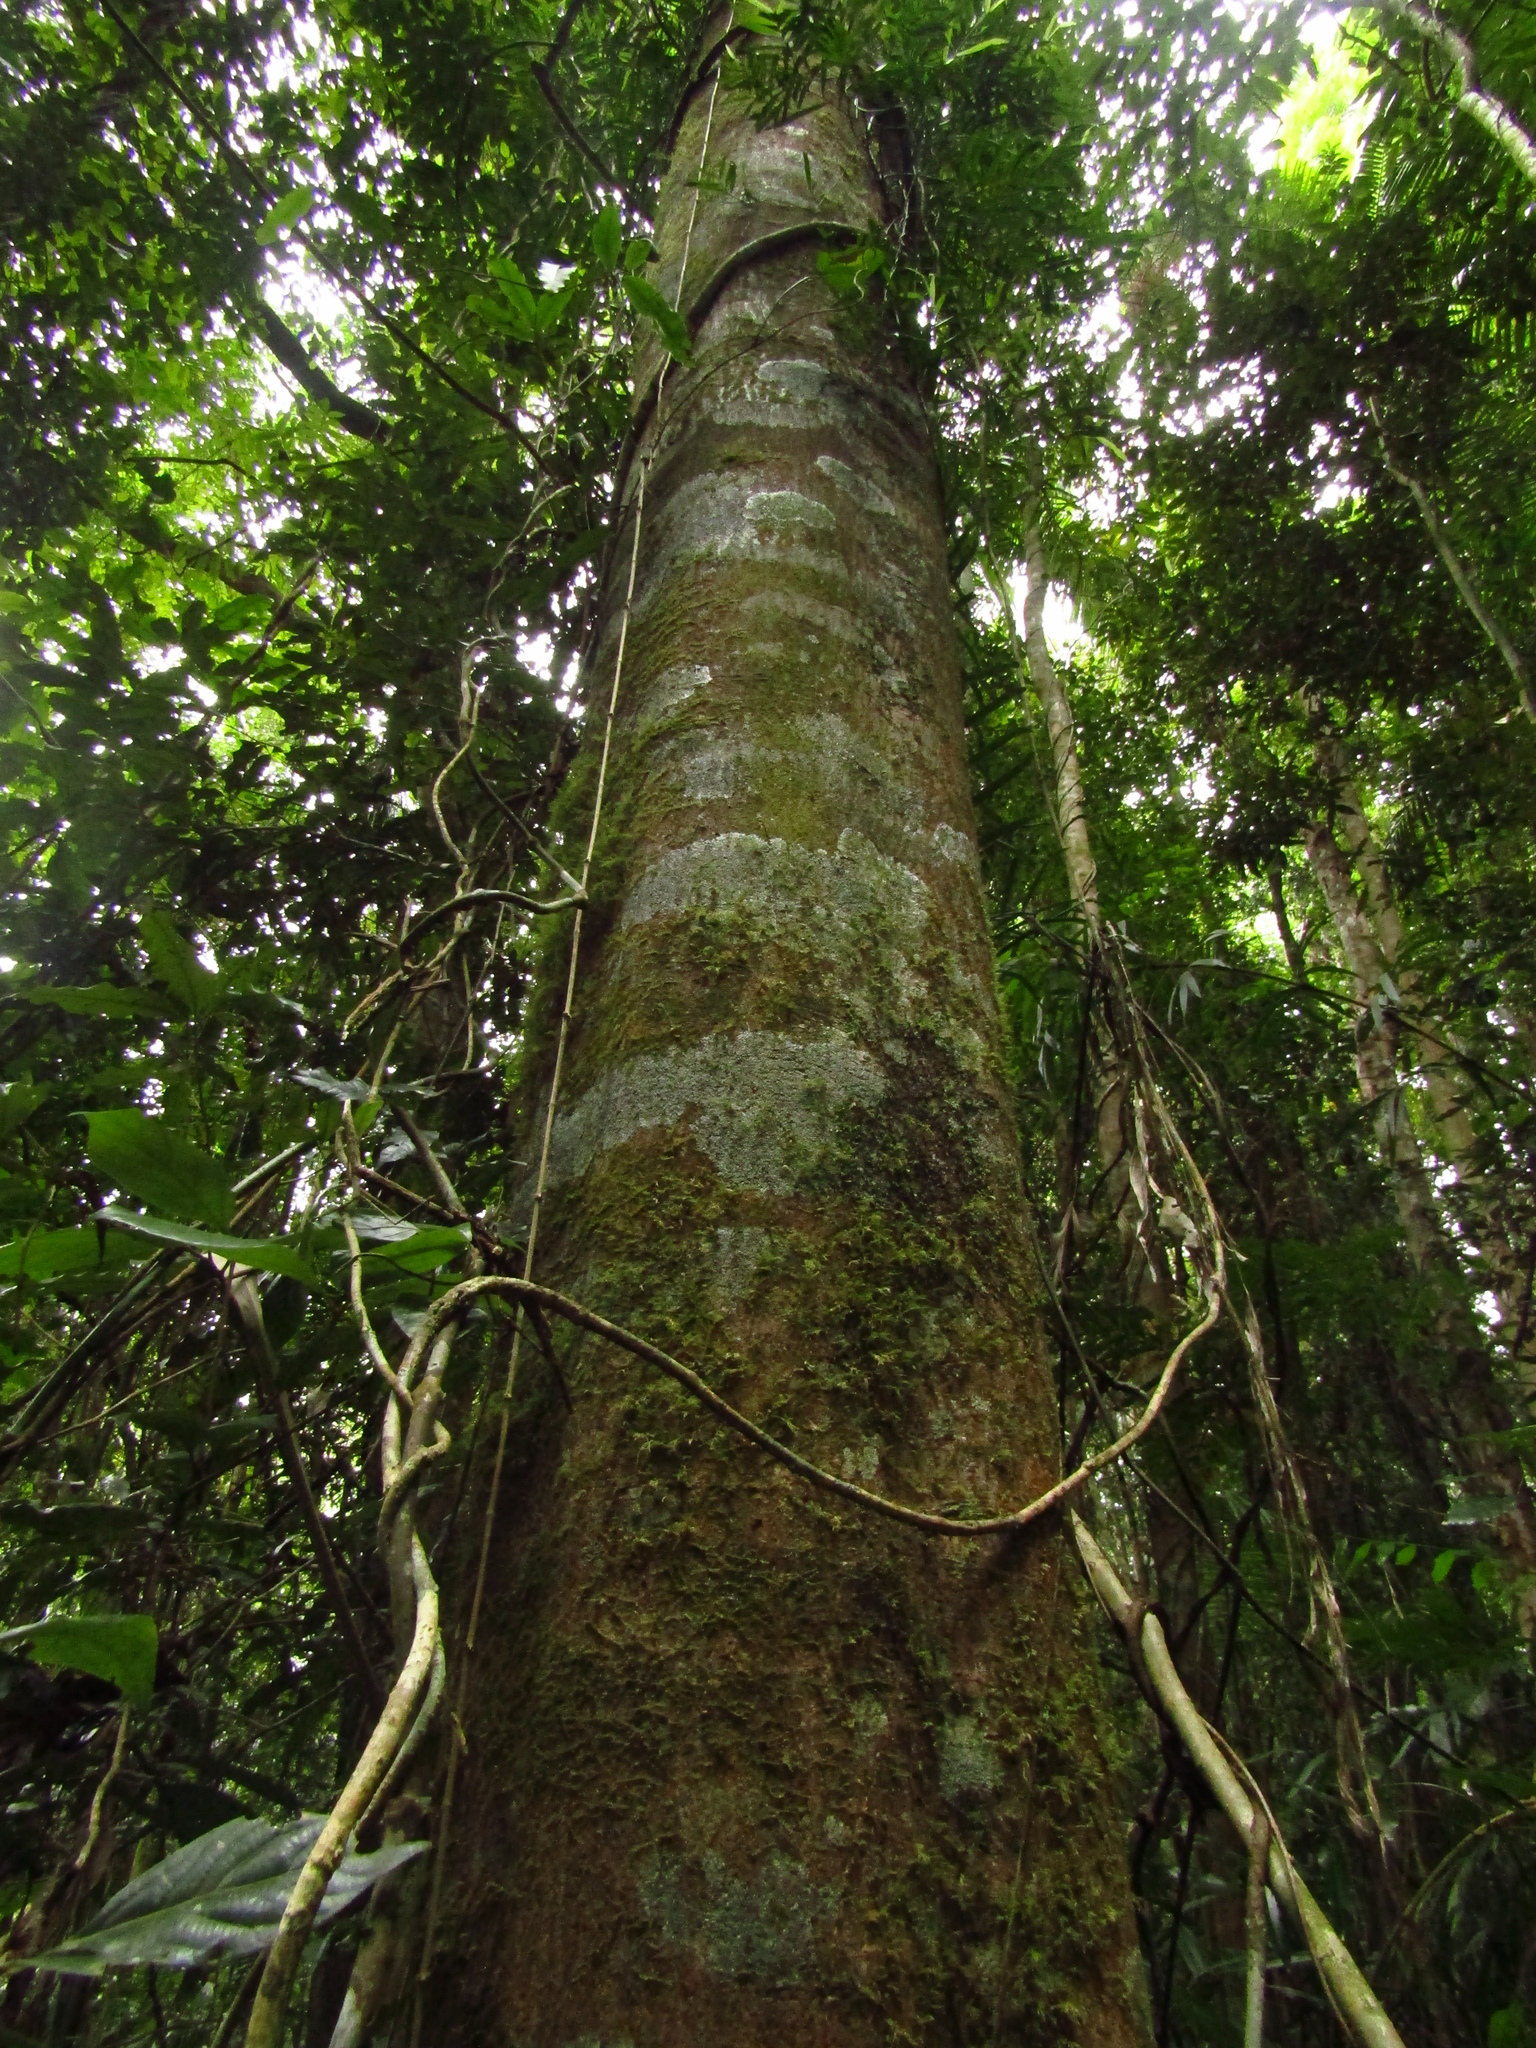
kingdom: Plantae
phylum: Tracheophyta
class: Magnoliopsida
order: Sapindales
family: Meliaceae
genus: Owenia
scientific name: Owenia cepiodora
